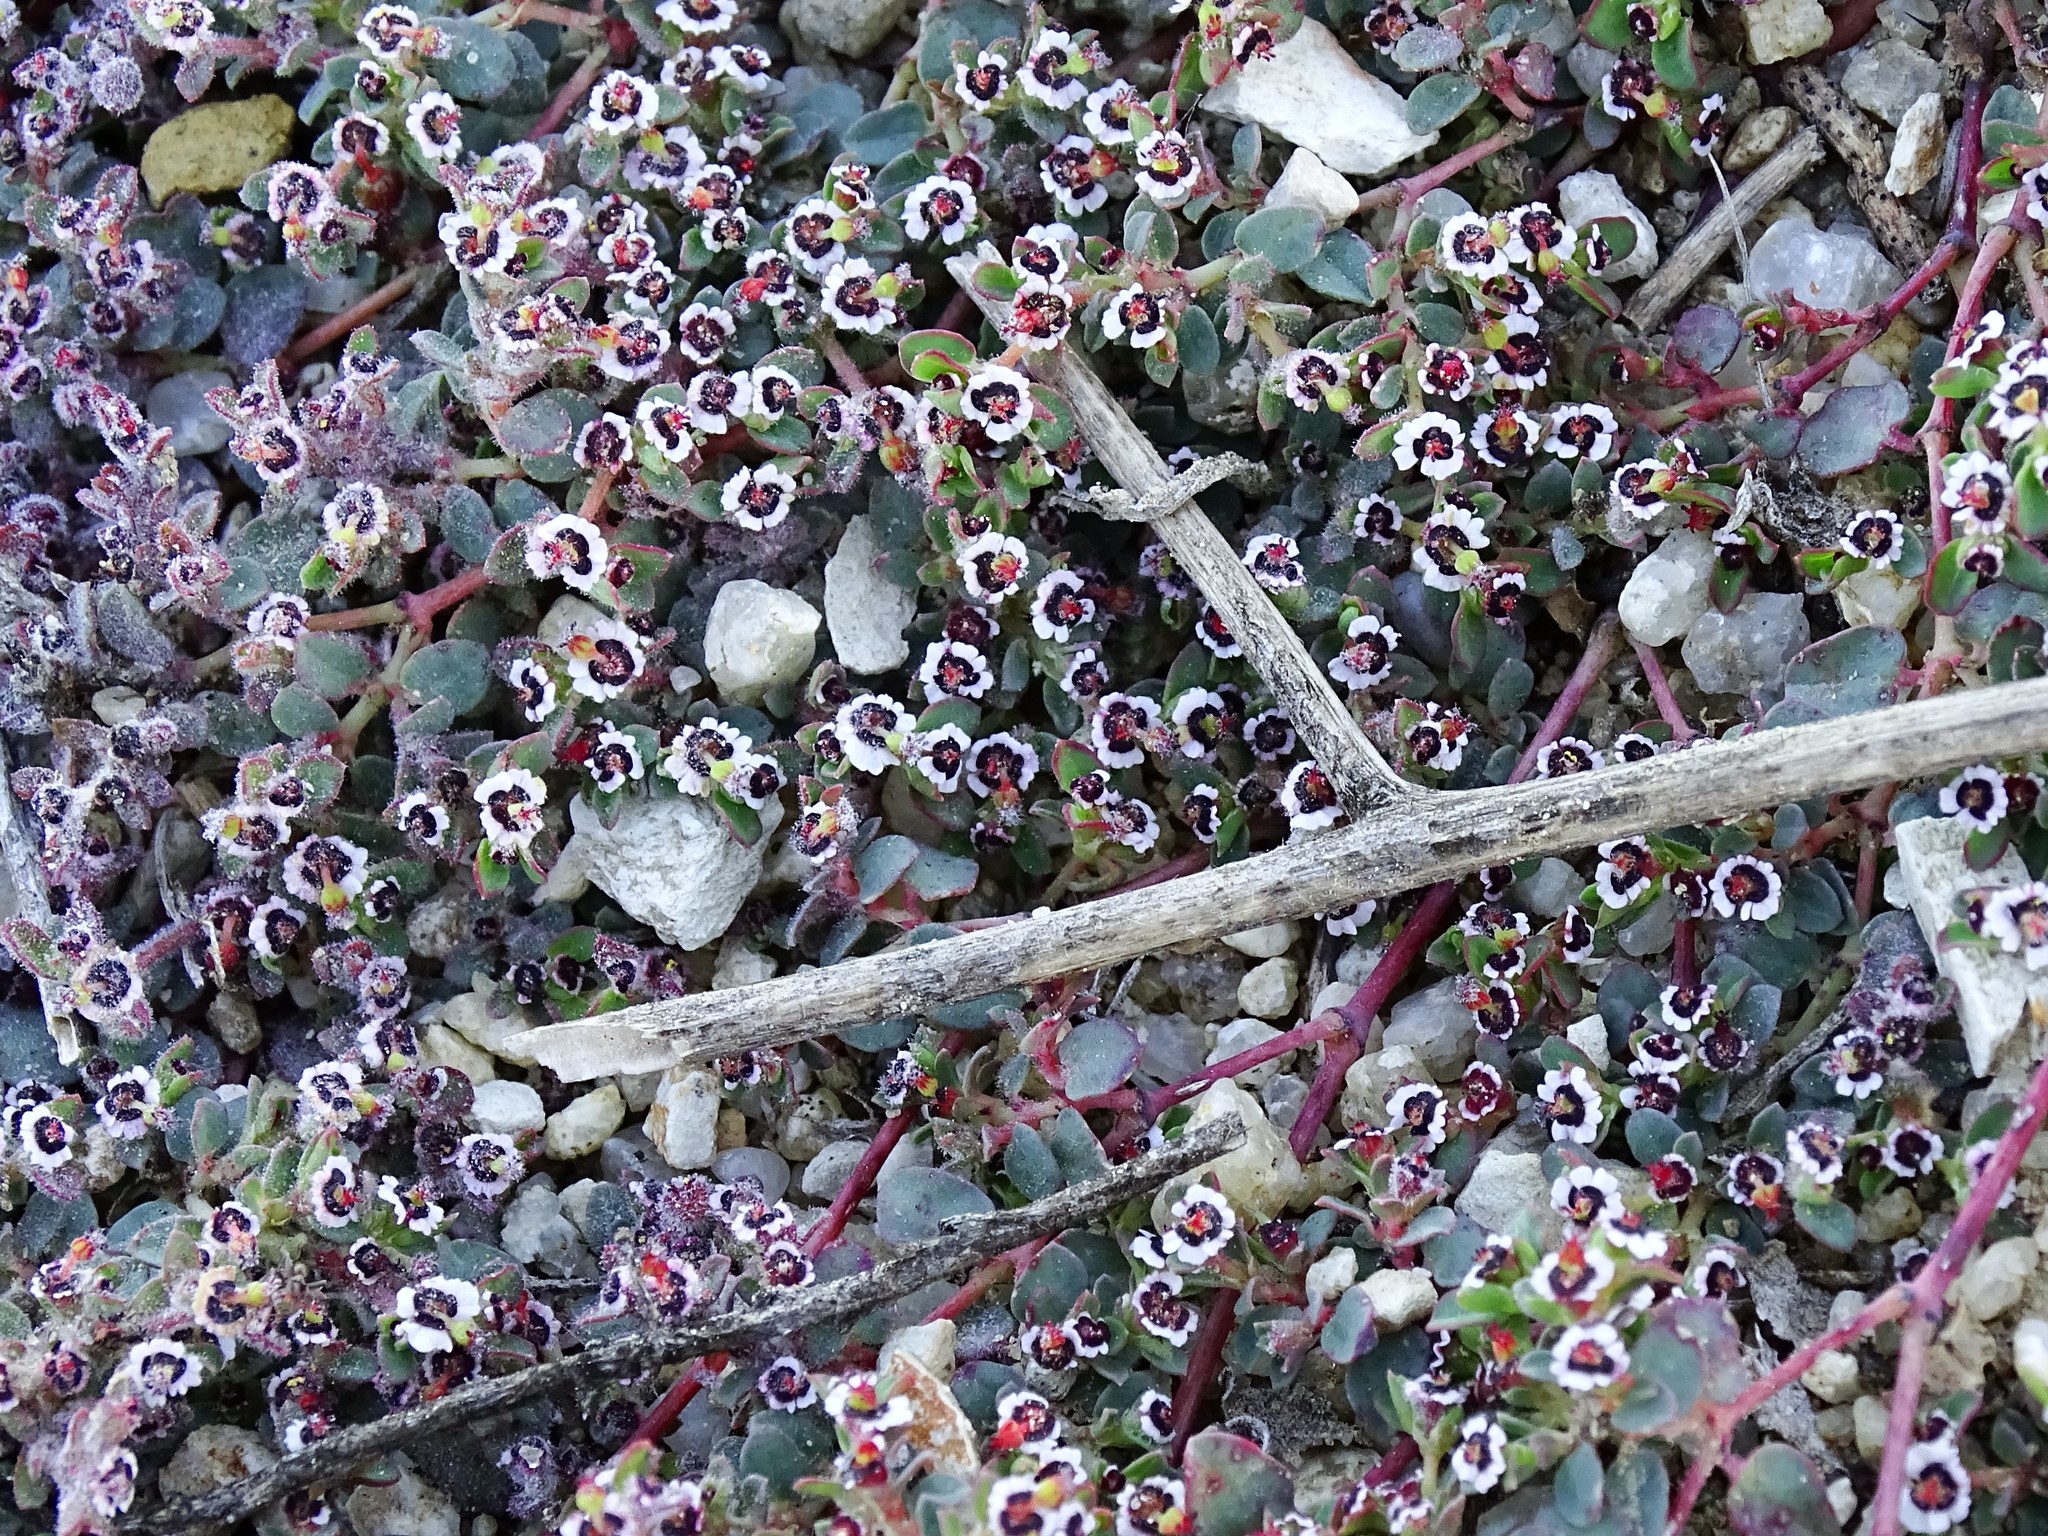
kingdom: Plantae
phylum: Tracheophyta
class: Magnoliopsida
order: Malpighiales
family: Euphorbiaceae
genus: Euphorbia
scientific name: Euphorbia polycarpa
